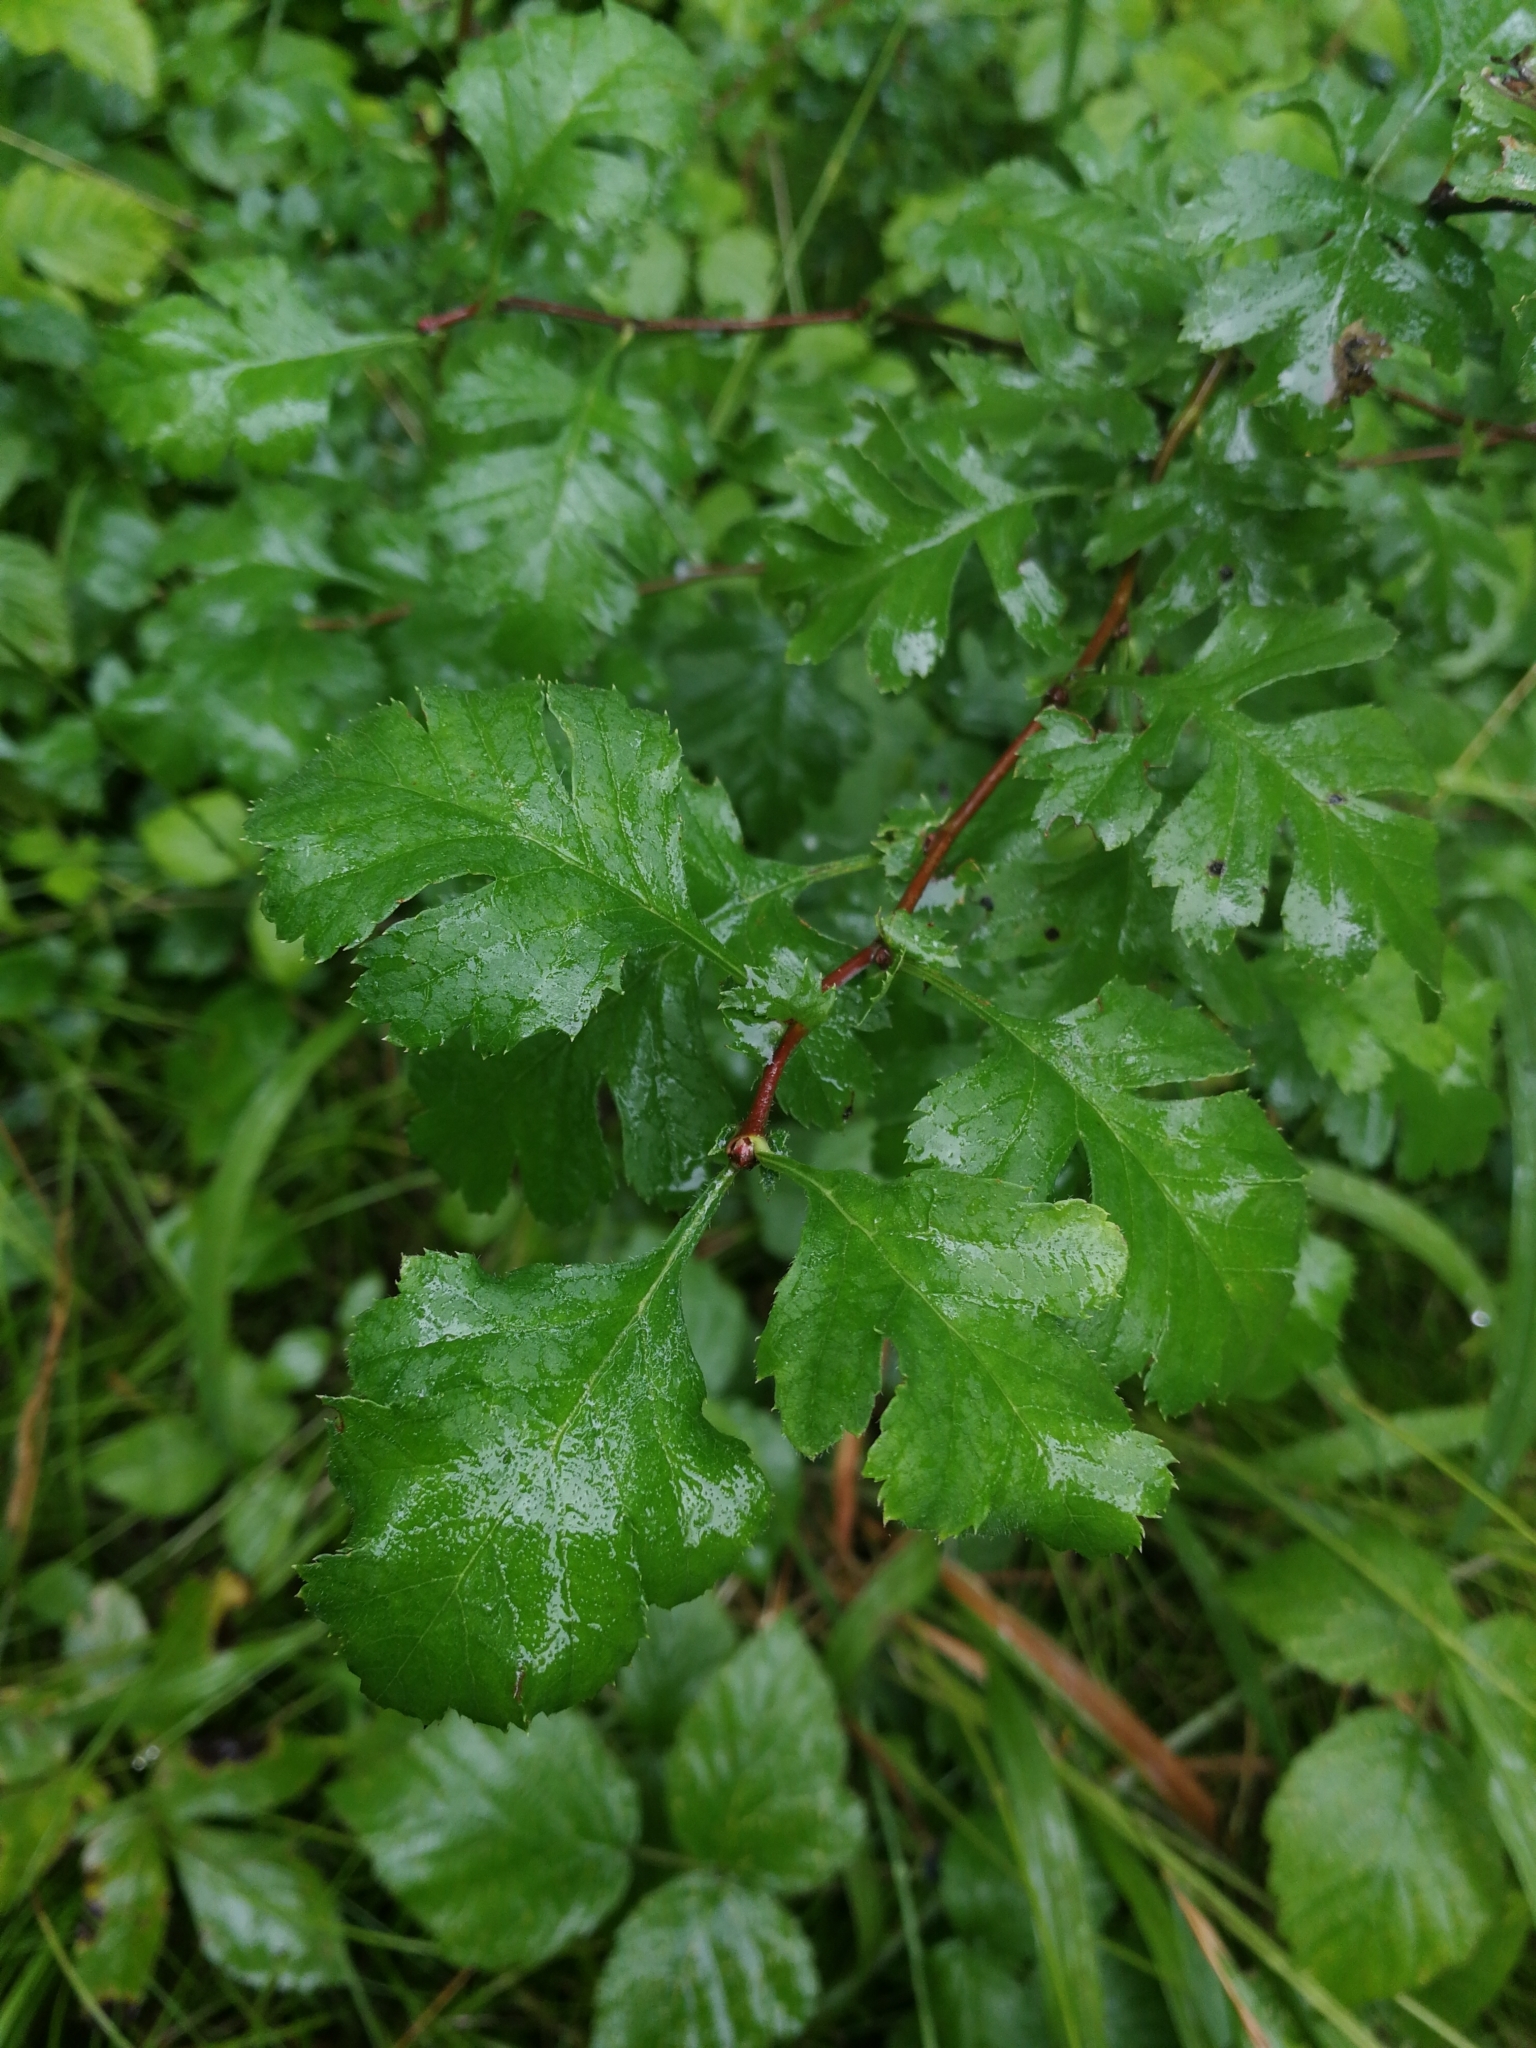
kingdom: Plantae
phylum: Tracheophyta
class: Magnoliopsida
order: Rosales
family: Rosaceae
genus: Crataegus
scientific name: Crataegus monogyna
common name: Hawthorn
